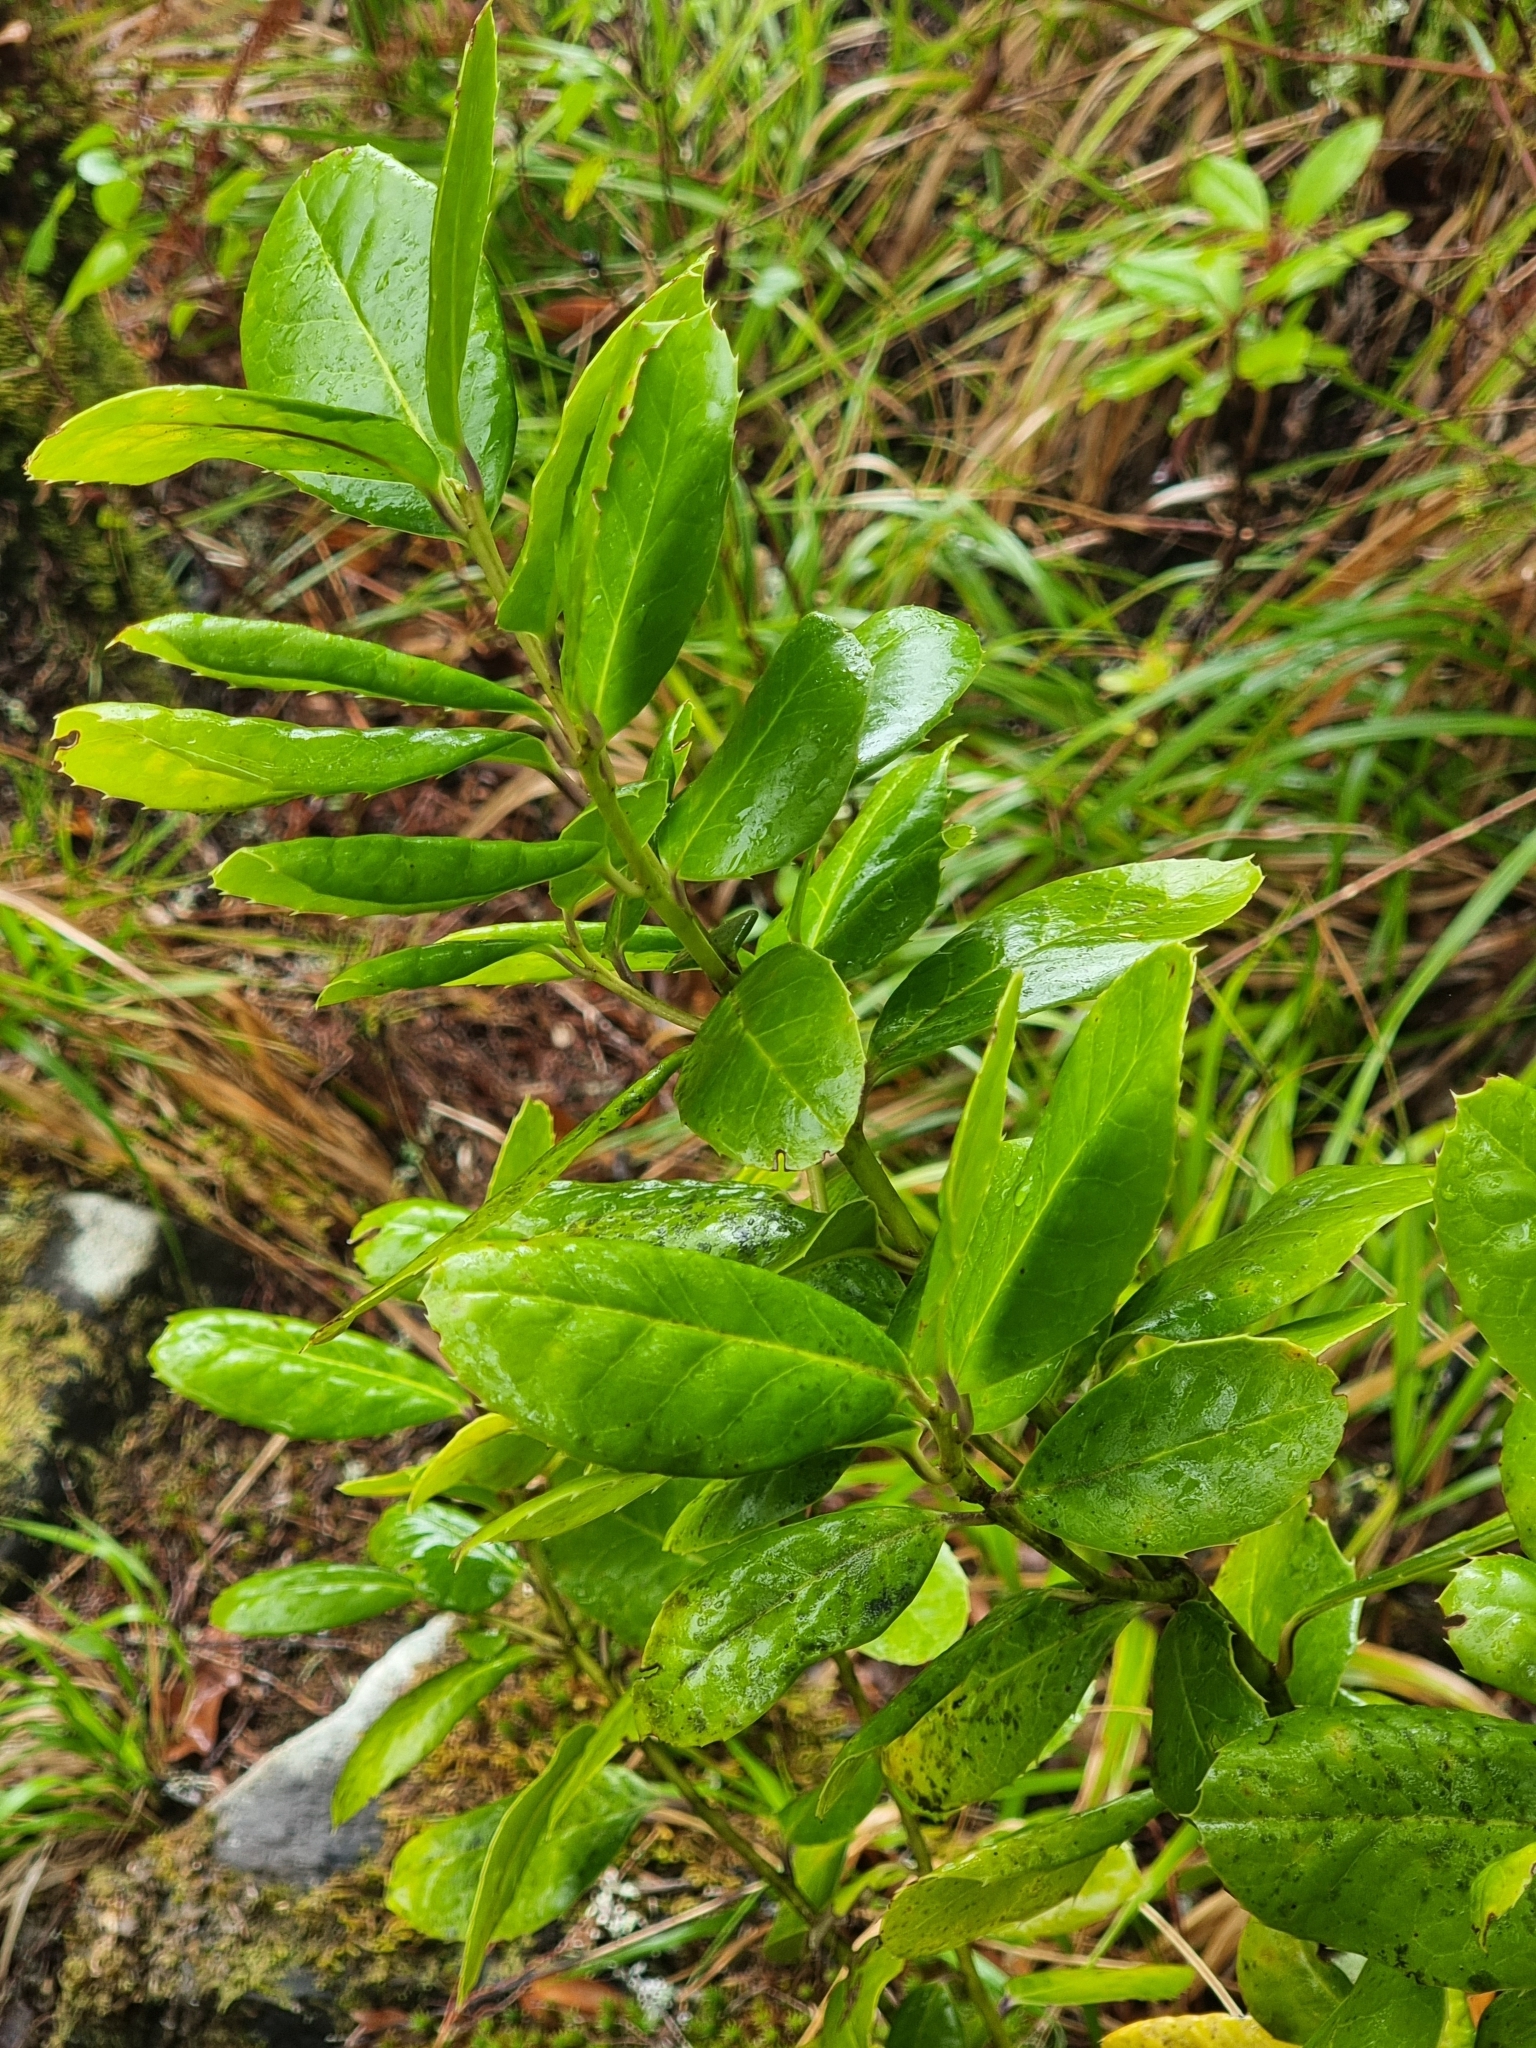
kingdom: Plantae
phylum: Tracheophyta
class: Magnoliopsida
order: Aquifoliales
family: Aquifoliaceae
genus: Ilex
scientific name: Ilex perado
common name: Madeira holly
